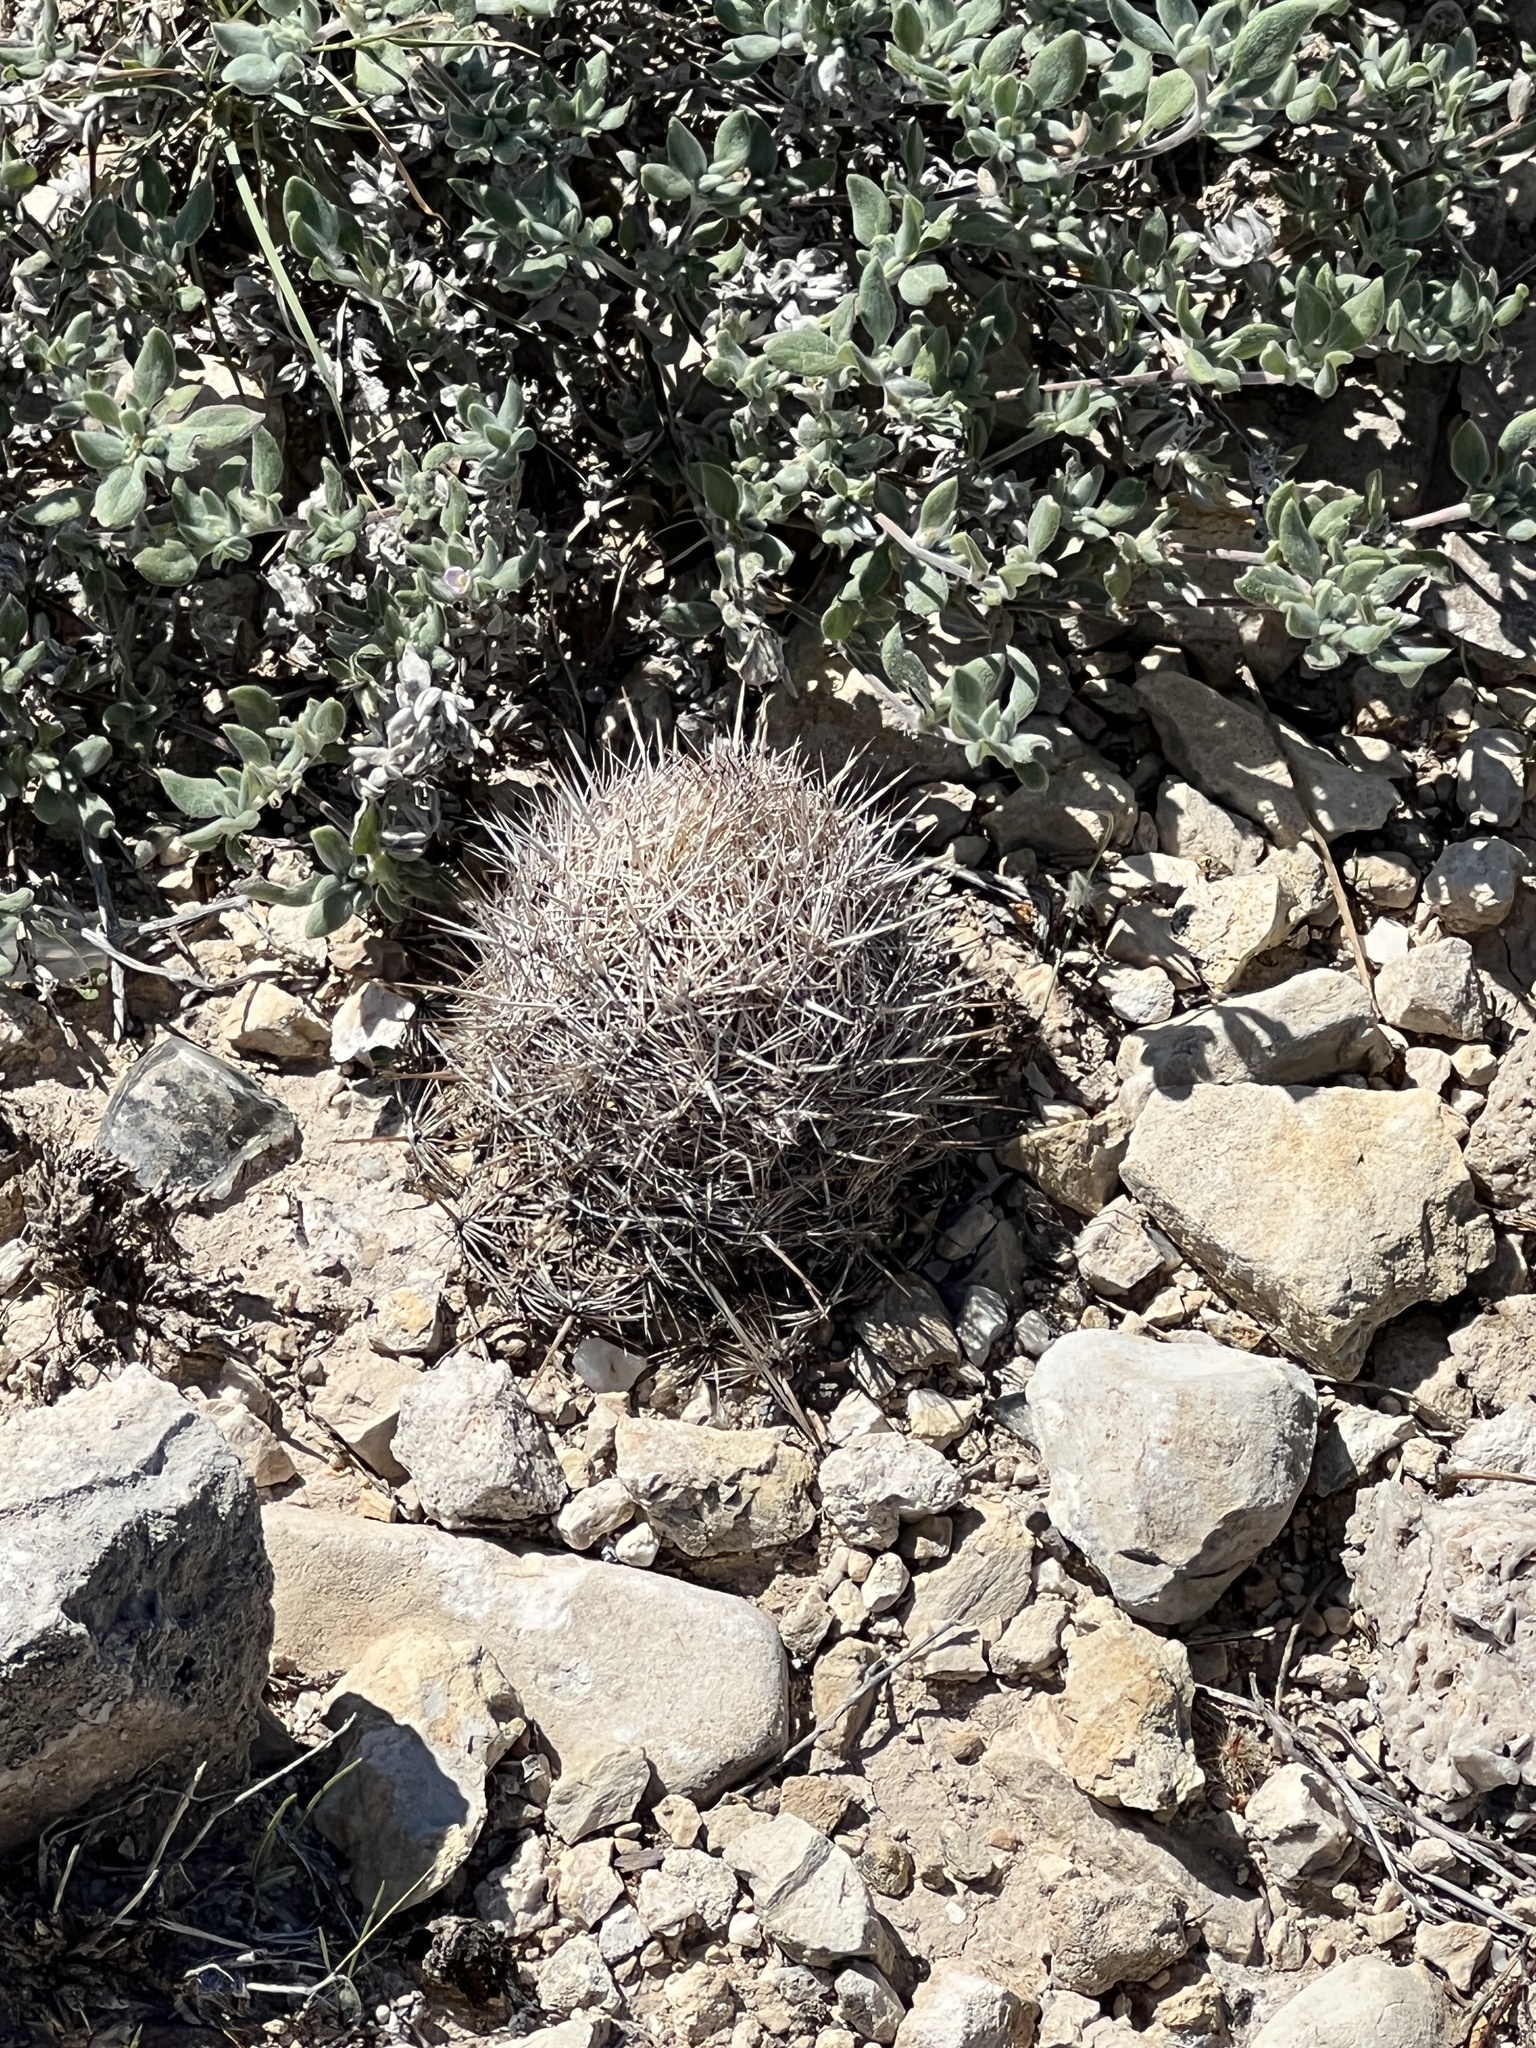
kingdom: Plantae
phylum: Tracheophyta
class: Magnoliopsida
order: Caryophyllales
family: Cactaceae
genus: Coryphantha
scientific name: Coryphantha echinus
